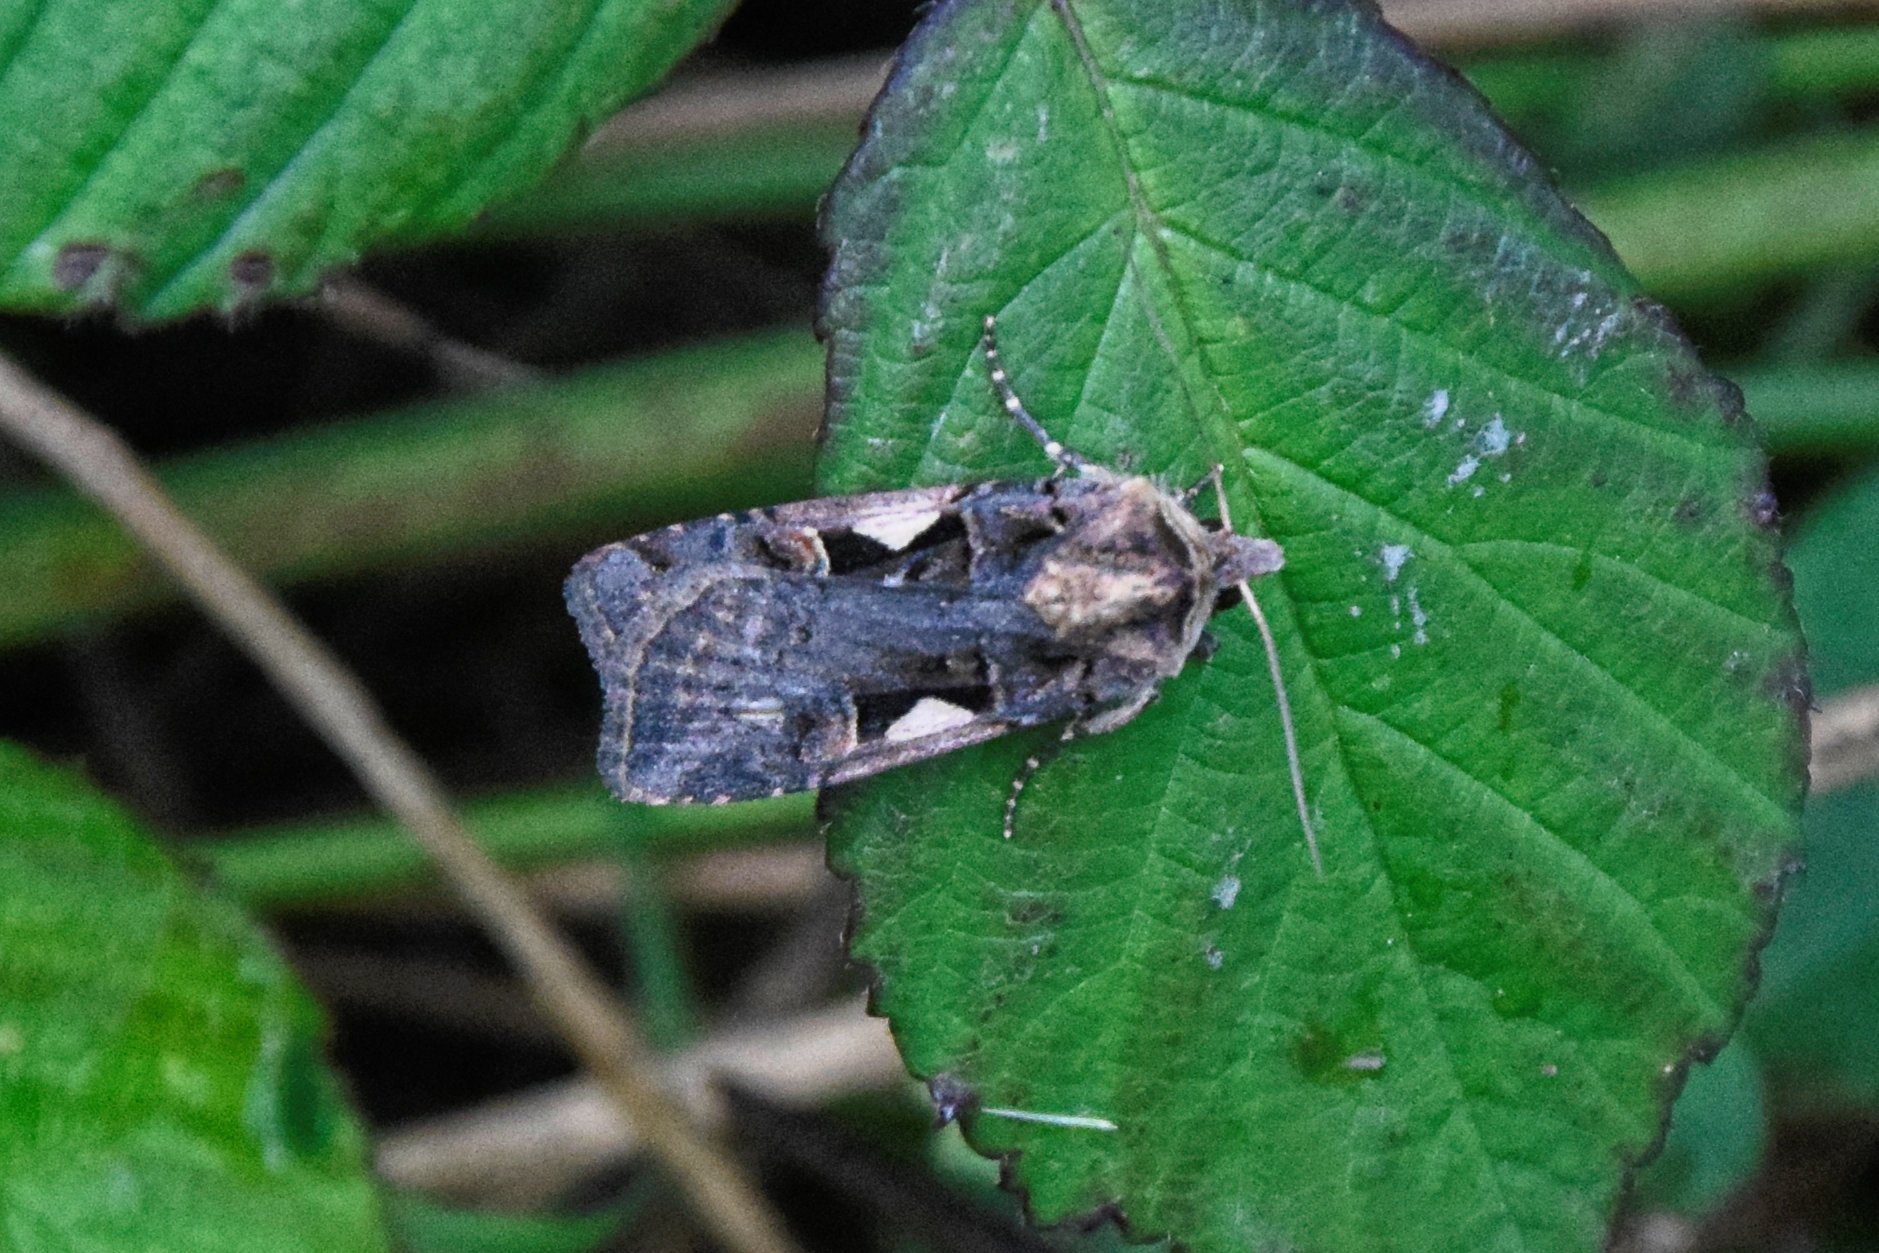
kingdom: Animalia
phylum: Arthropoda
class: Insecta
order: Lepidoptera
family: Noctuidae
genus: Xestia
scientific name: Xestia c-nigrum
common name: Setaceous hebrew character
